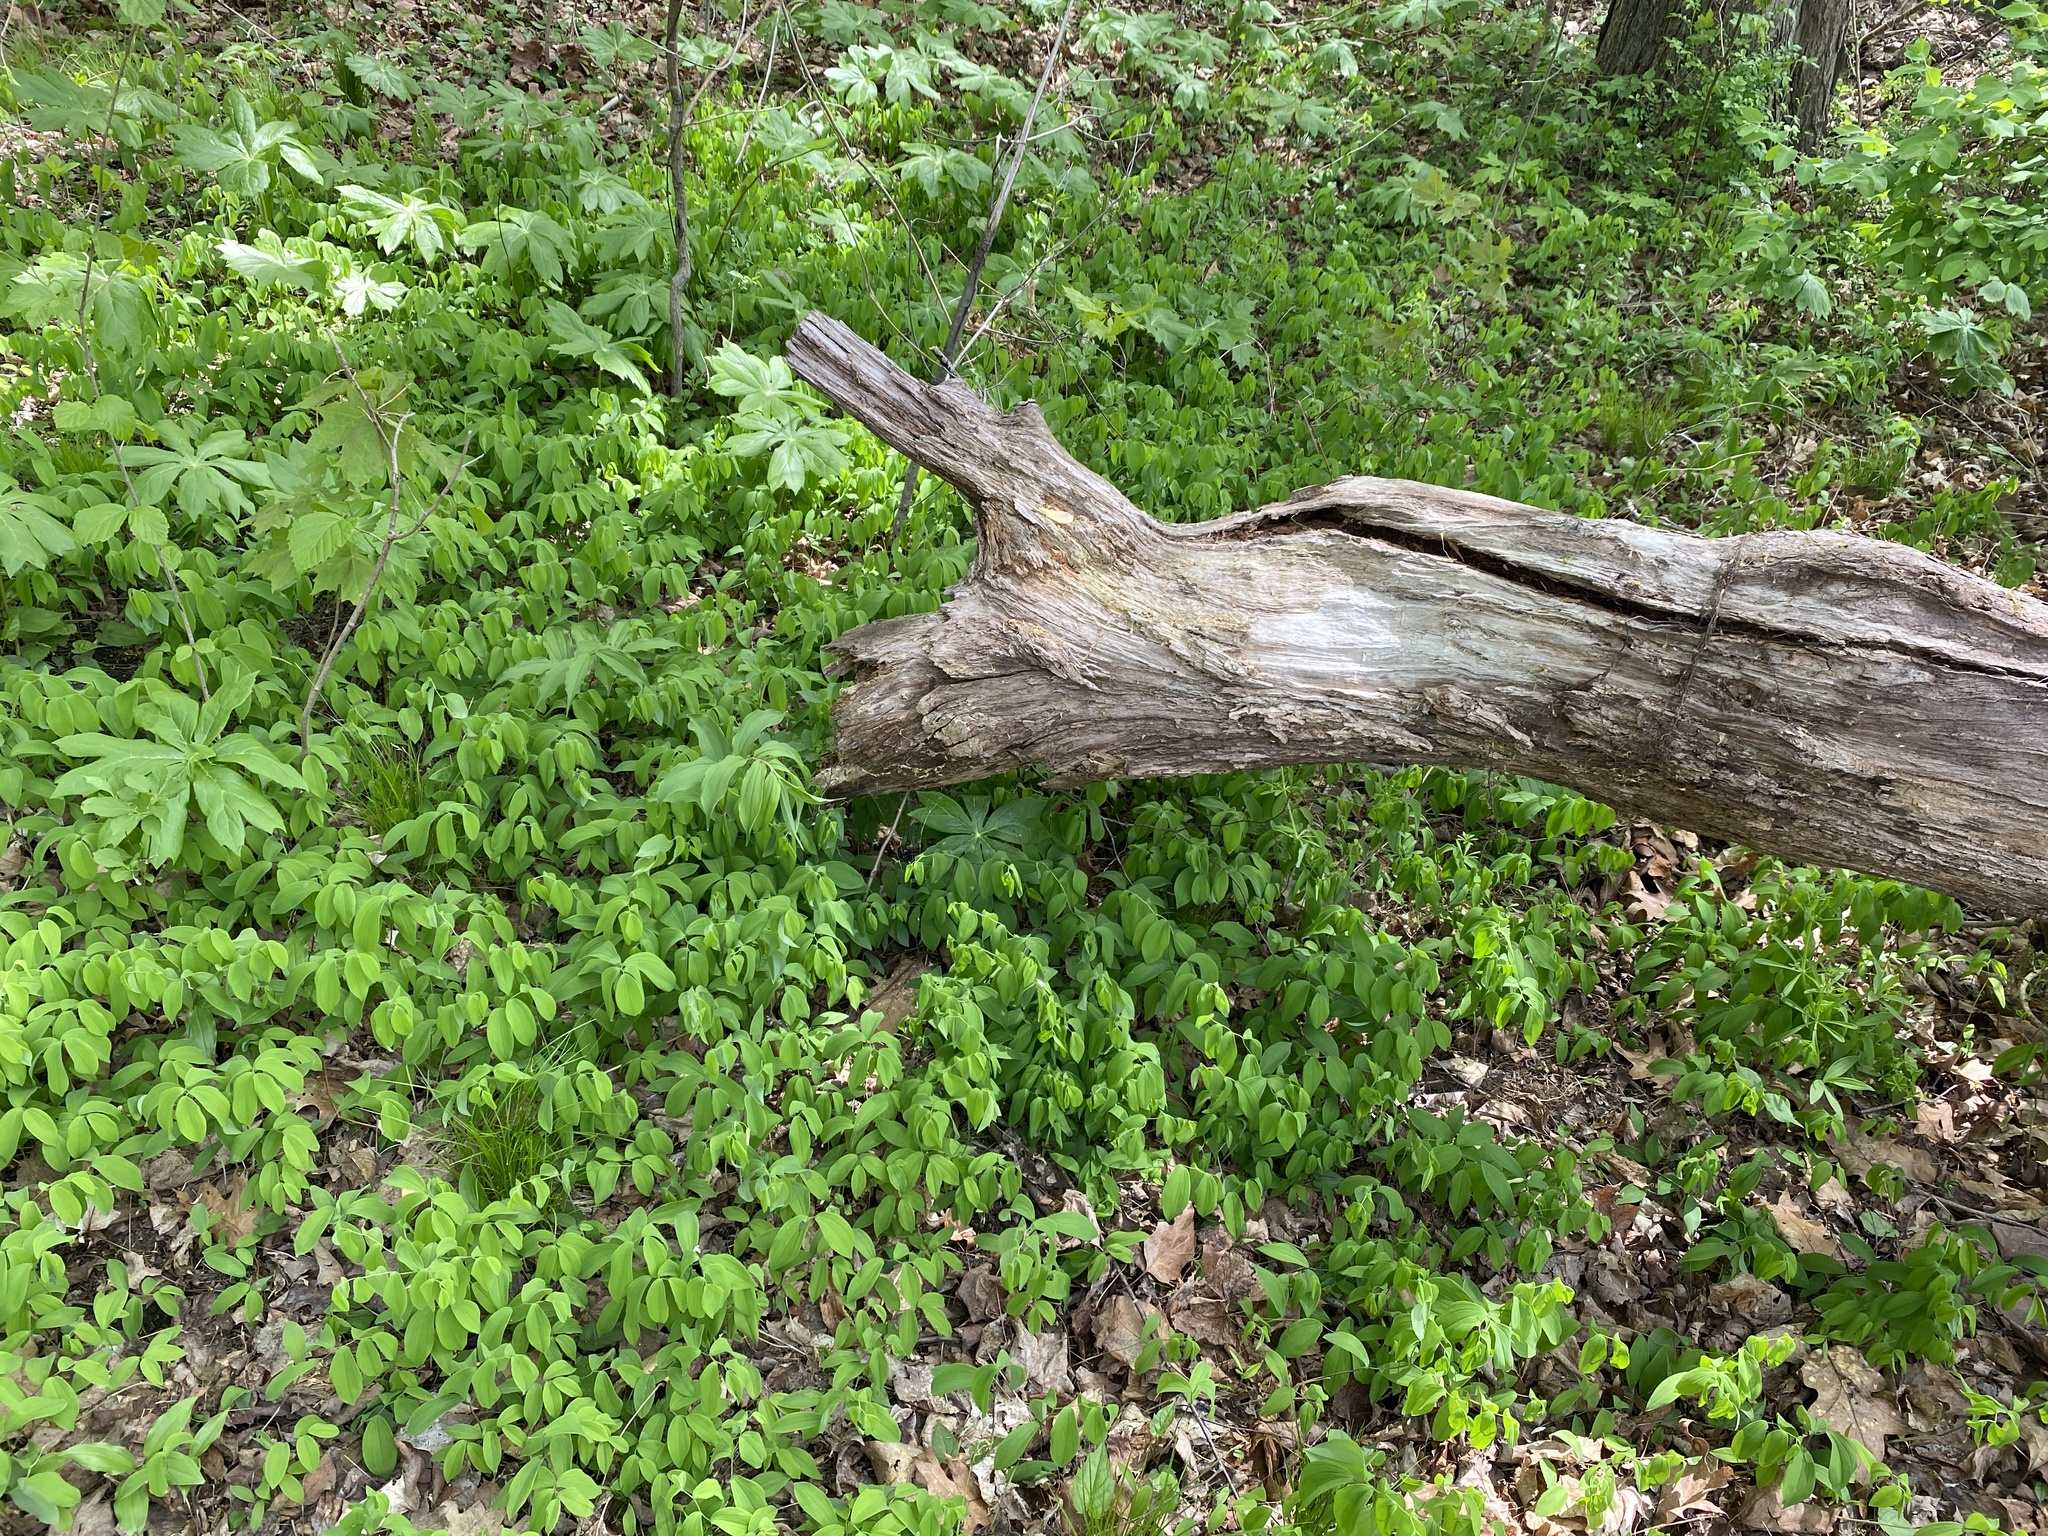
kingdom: Plantae
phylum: Tracheophyta
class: Liliopsida
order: Liliales
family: Colchicaceae
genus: Uvularia
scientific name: Uvularia sessilifolia
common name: Straw-lily
